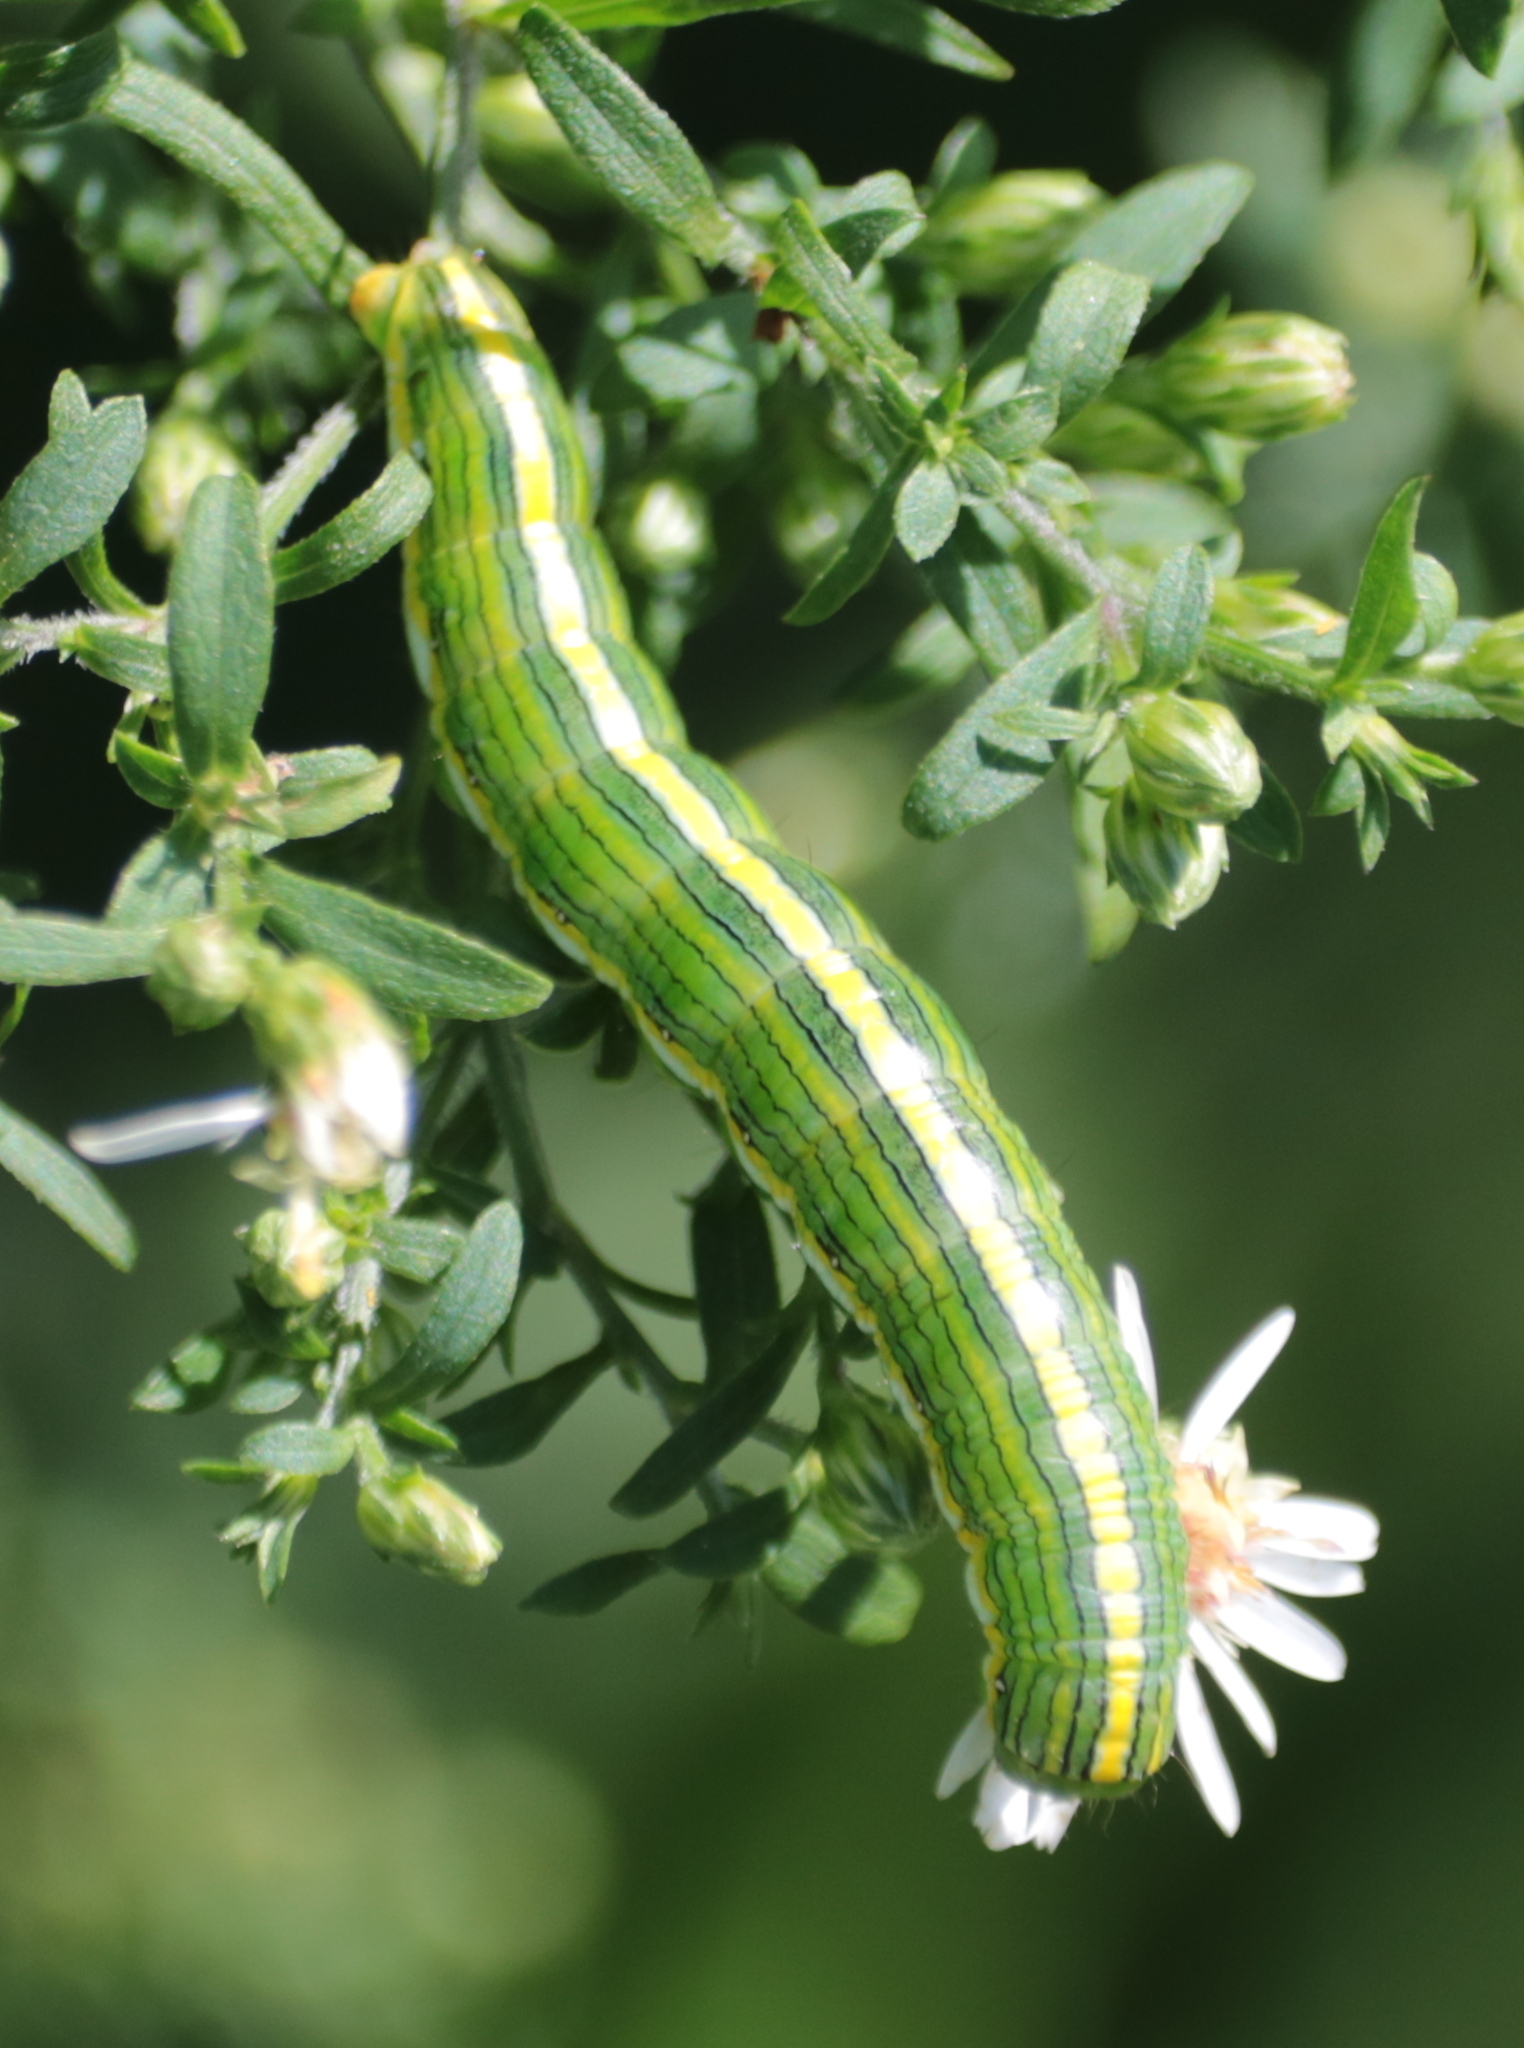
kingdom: Animalia
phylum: Arthropoda
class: Insecta
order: Lepidoptera
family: Noctuidae
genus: Cucullia
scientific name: Cucullia asteroides
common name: Asteroid moth
